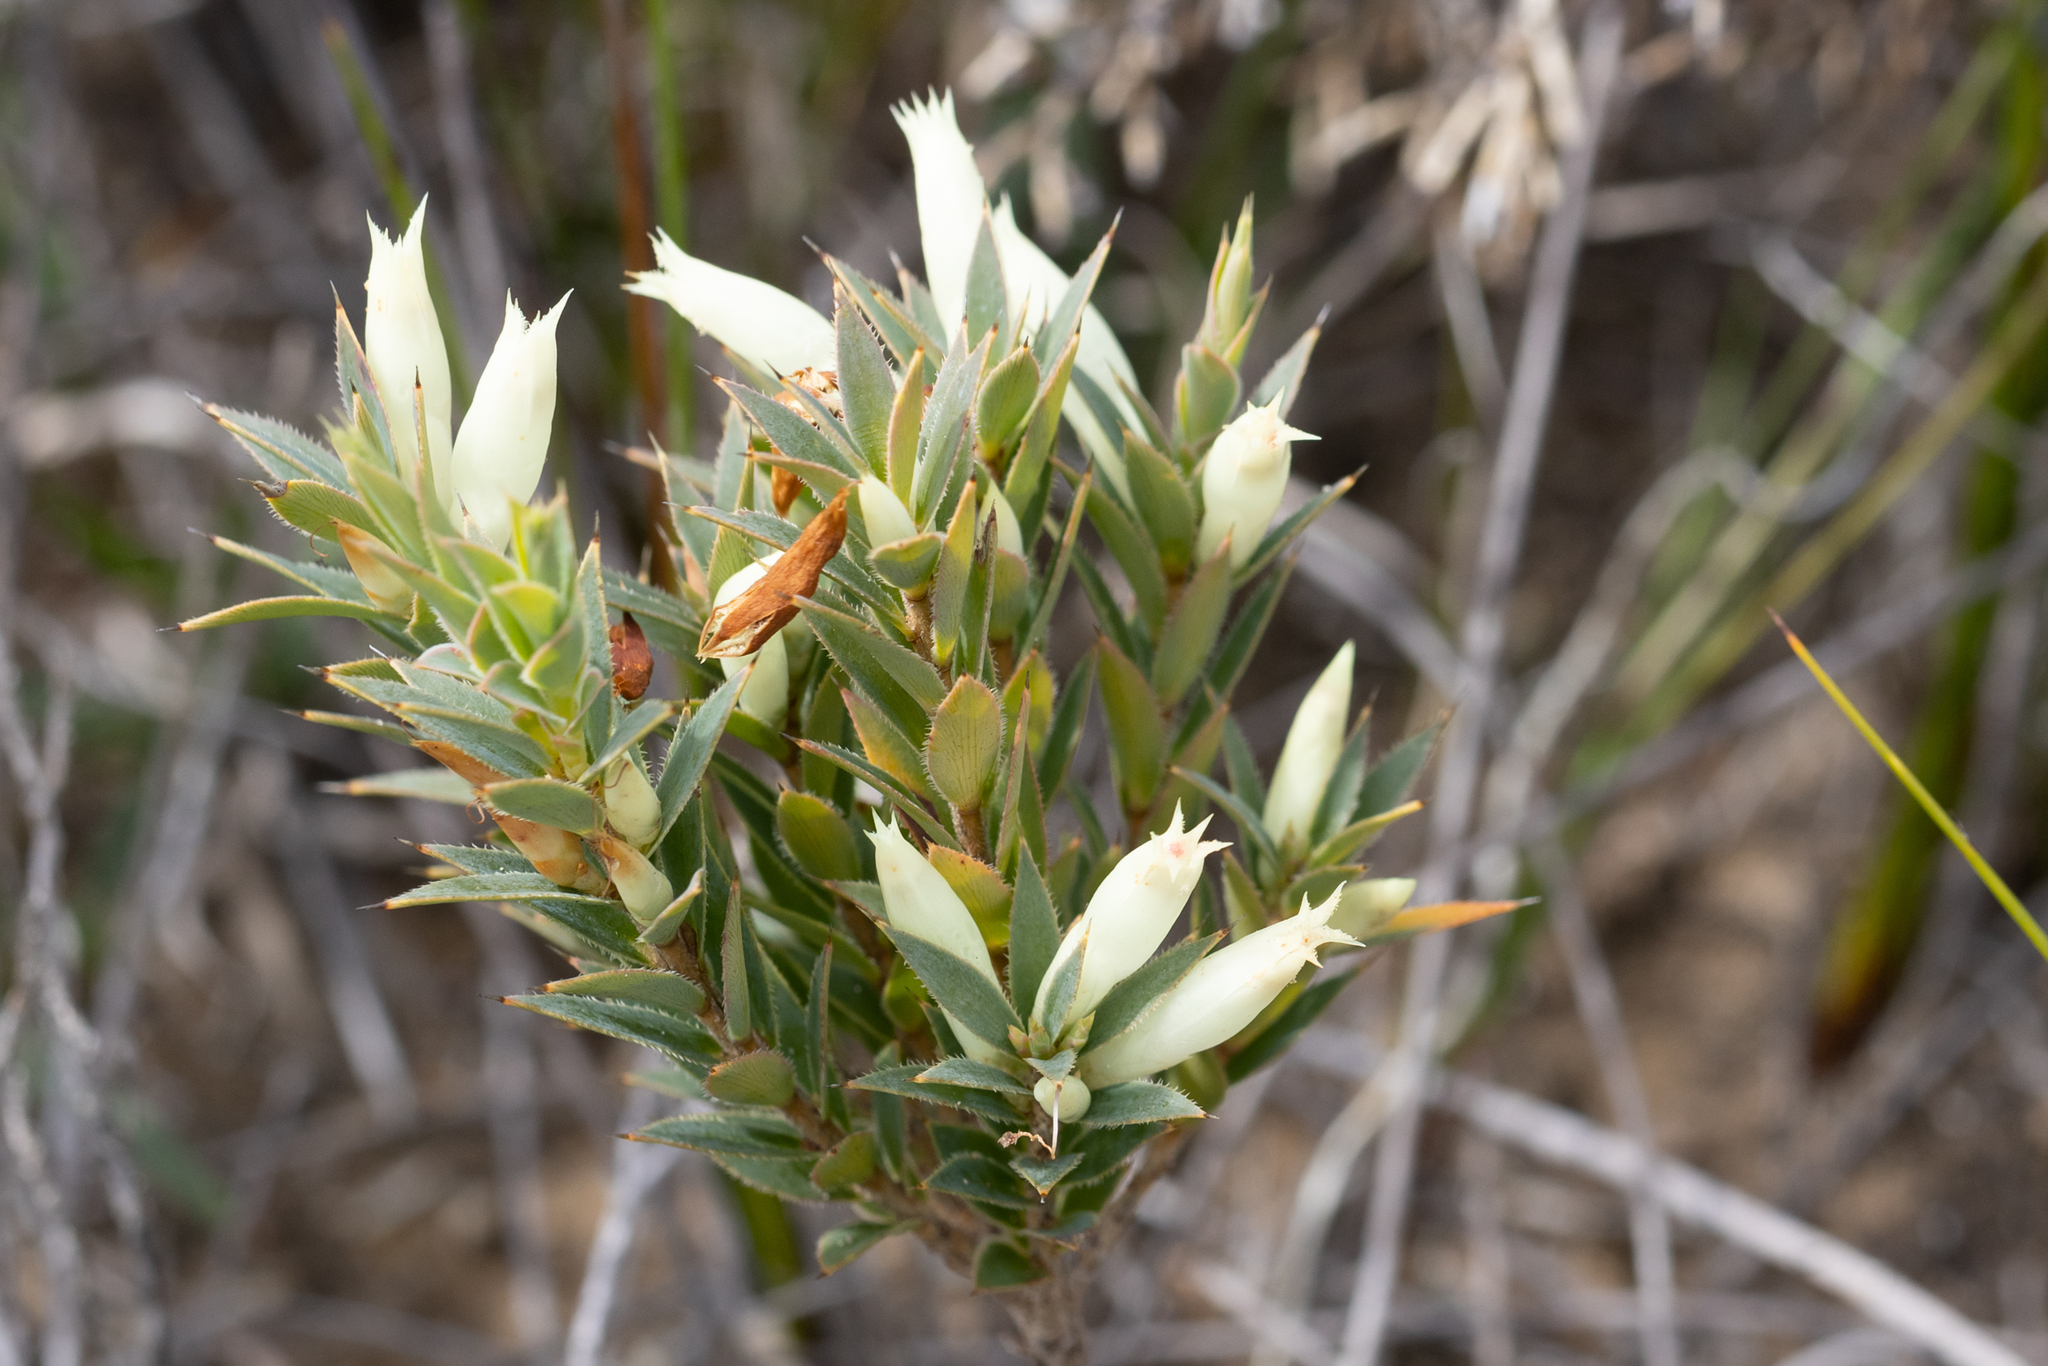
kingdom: Plantae
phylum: Tracheophyta
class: Magnoliopsida
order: Ericales
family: Ericaceae
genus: Styphelia
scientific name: Styphelia pallida
